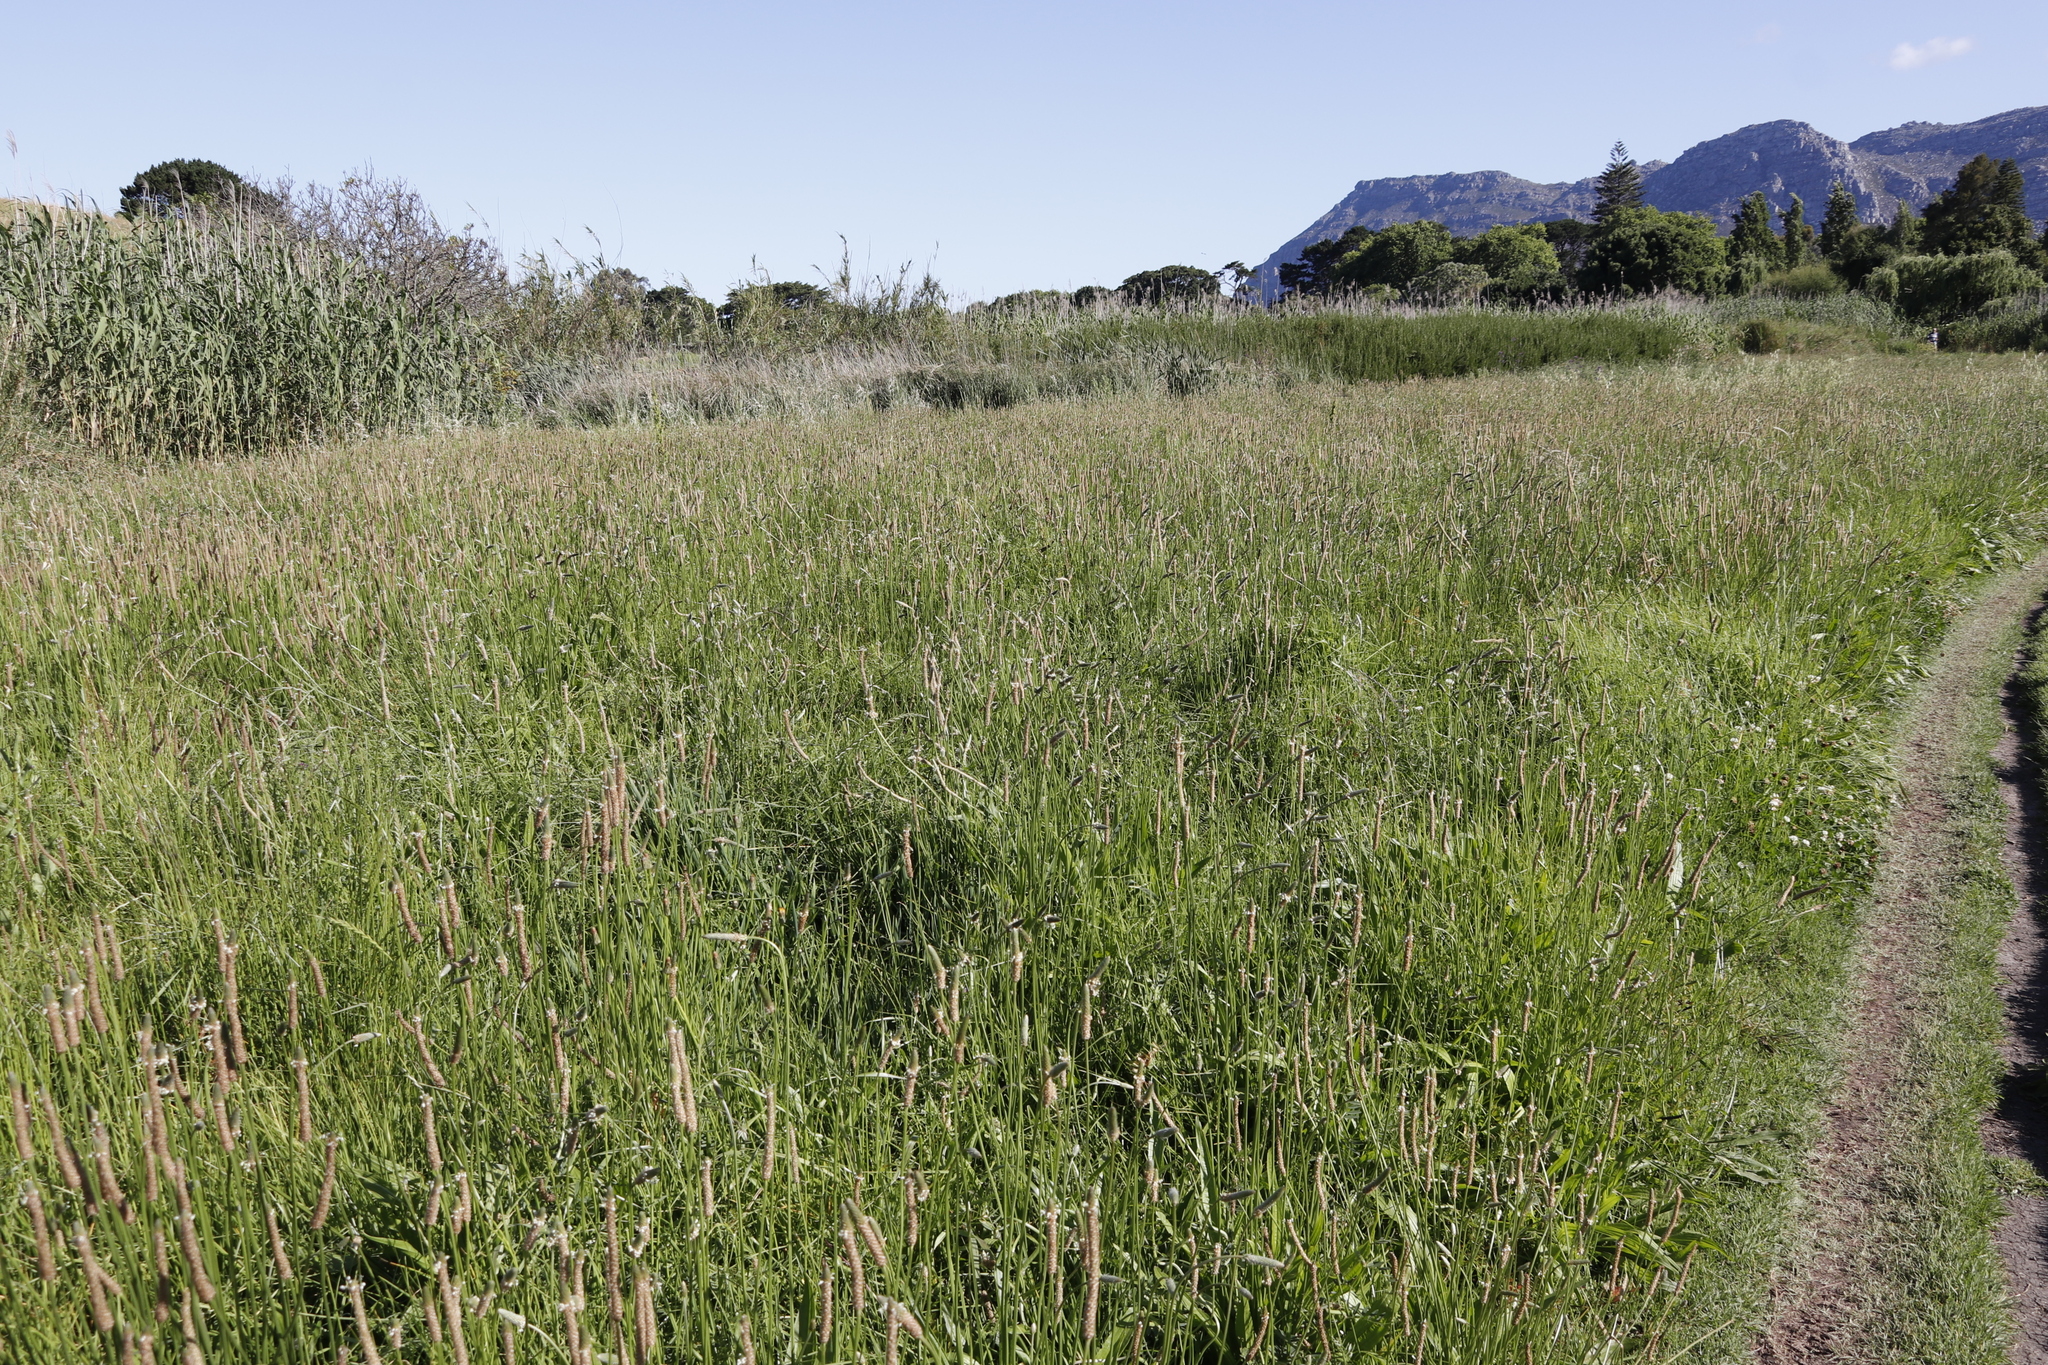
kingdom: Plantae
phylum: Tracheophyta
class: Magnoliopsida
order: Lamiales
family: Plantaginaceae
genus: Plantago
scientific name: Plantago lanceolata
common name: Ribwort plantain
